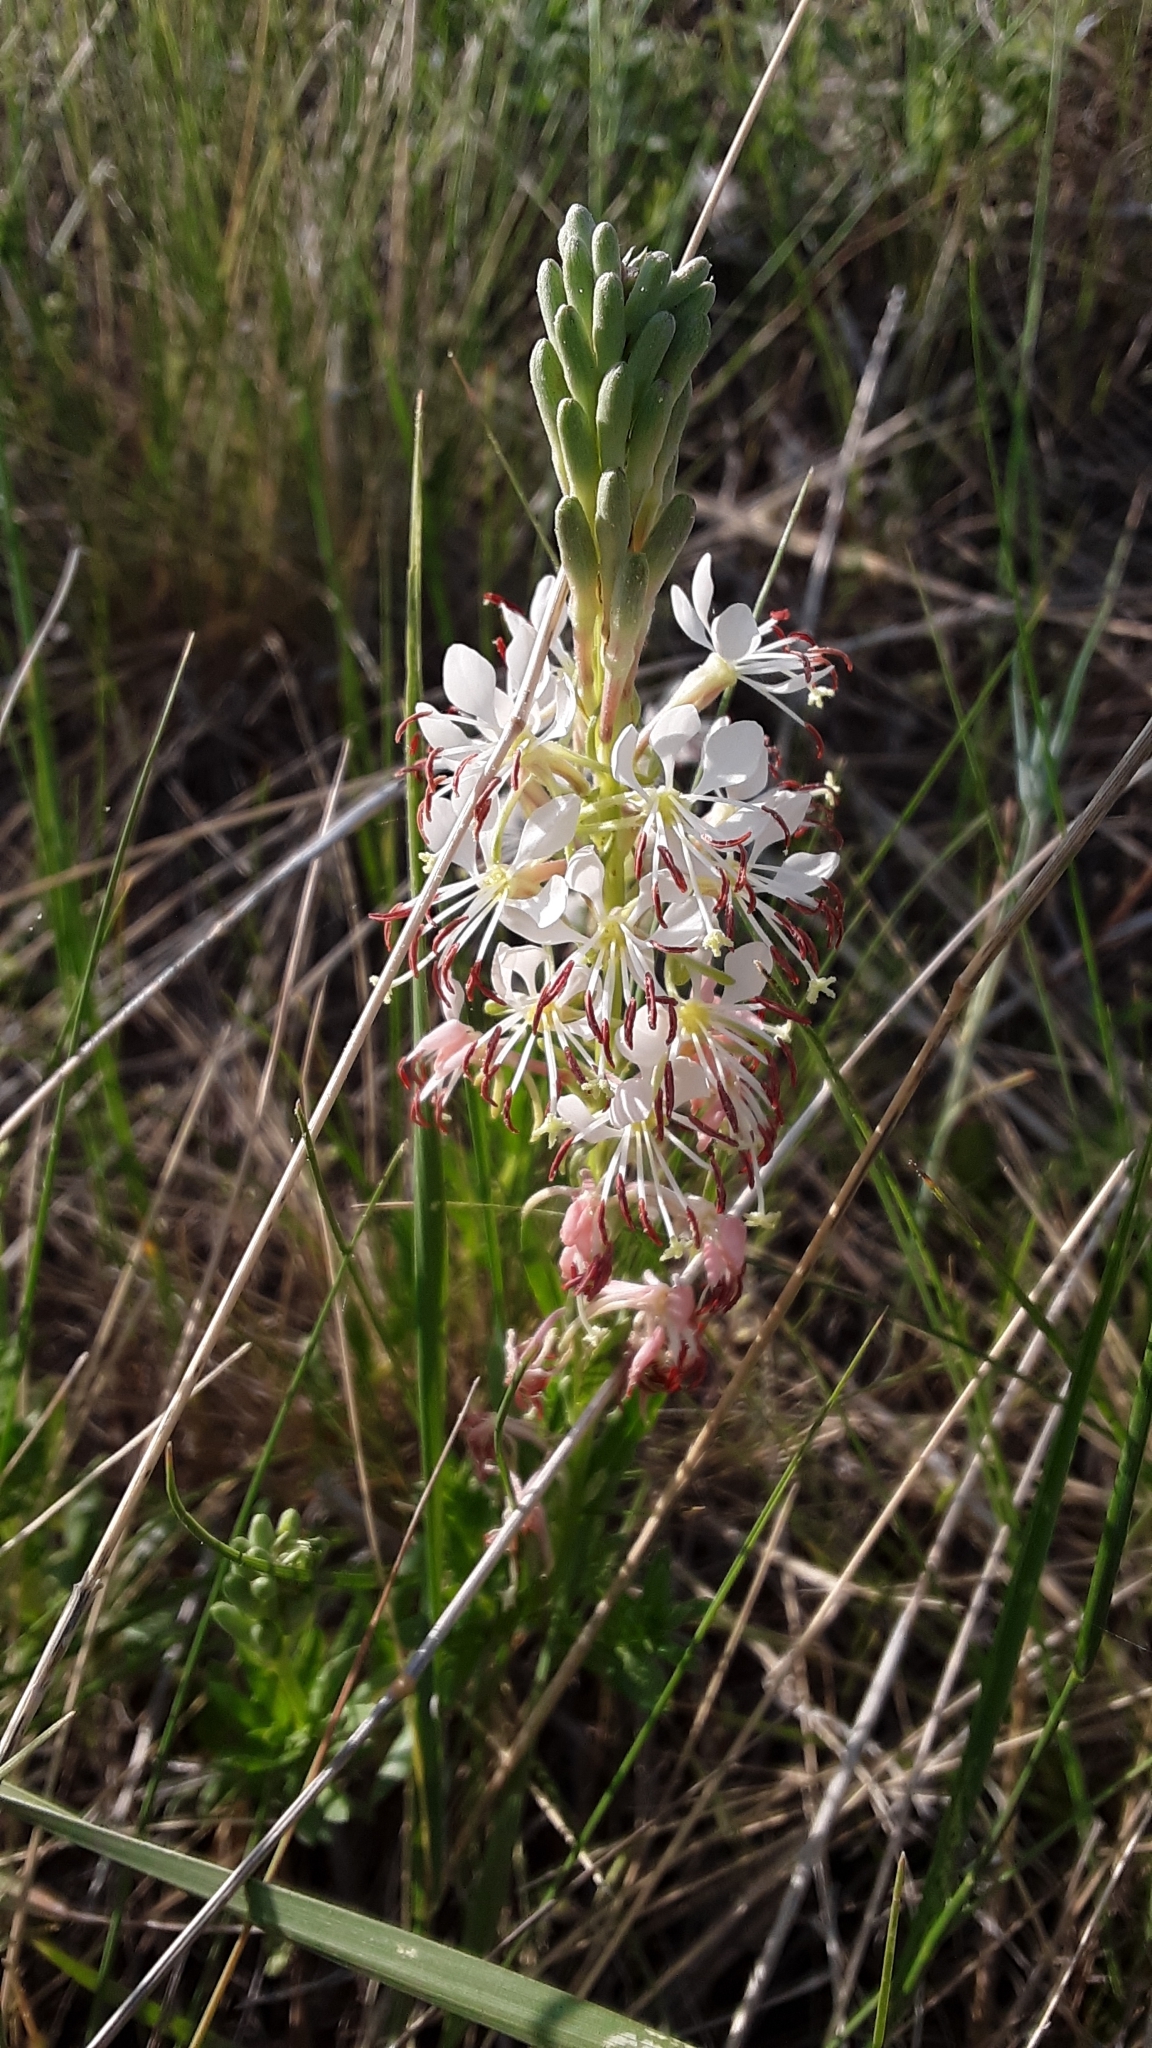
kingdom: Plantae
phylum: Tracheophyta
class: Magnoliopsida
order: Myrtales
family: Onagraceae
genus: Oenothera
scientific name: Oenothera suffrutescens
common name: Scarlet beeblossom
